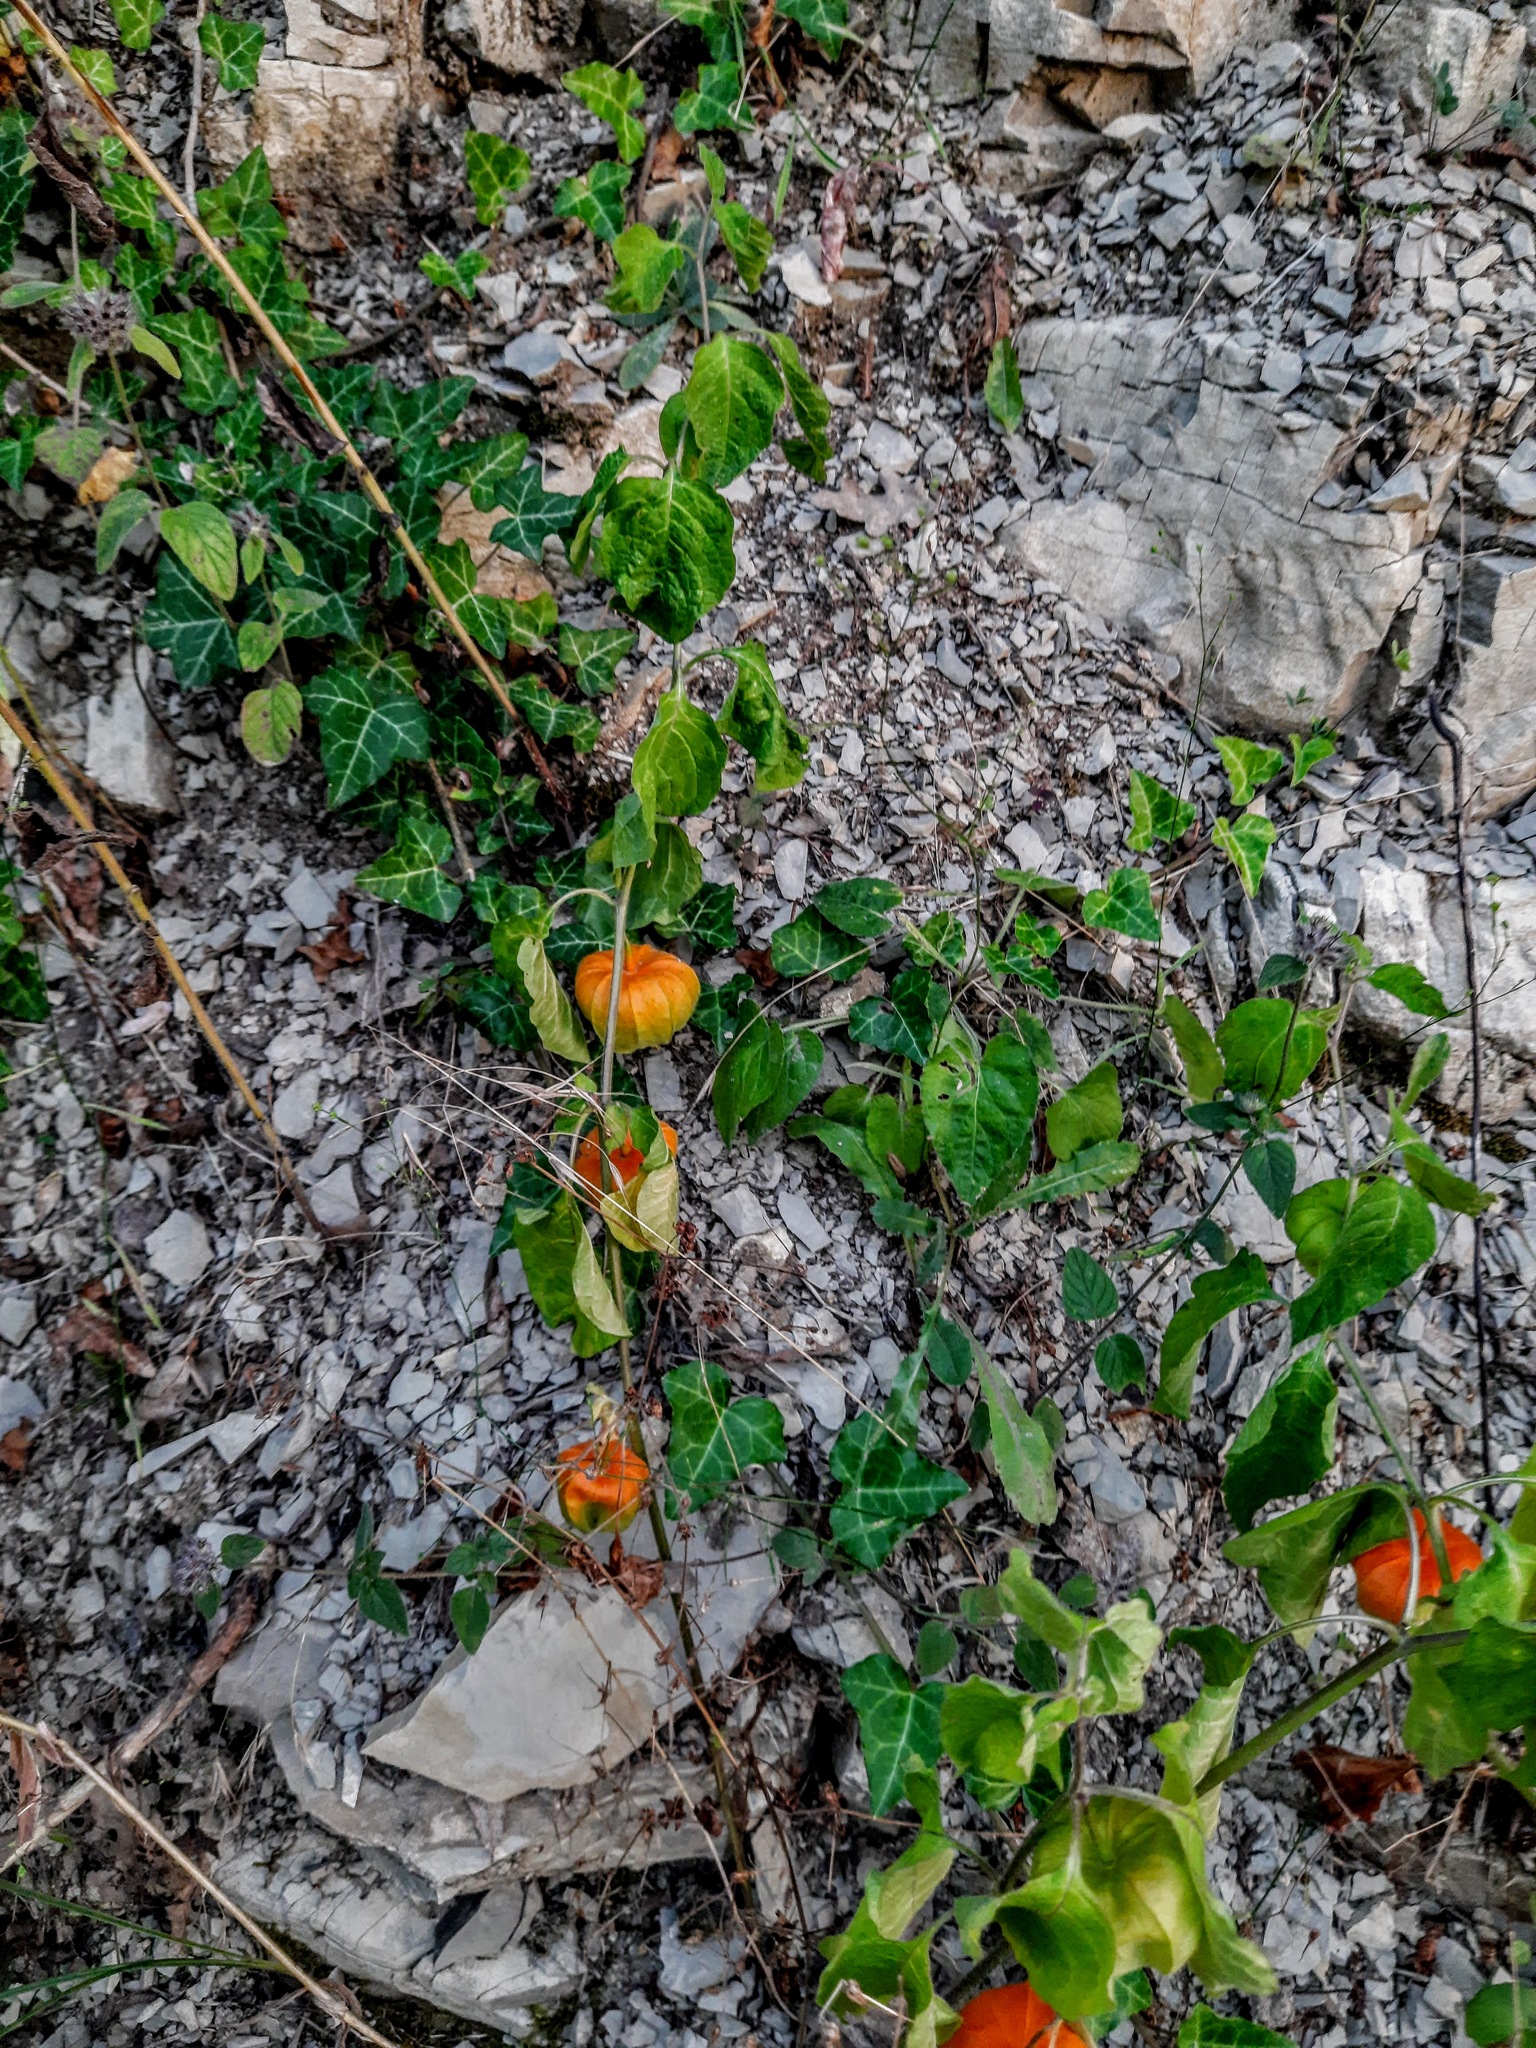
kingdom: Plantae
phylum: Tracheophyta
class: Magnoliopsida
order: Solanales
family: Solanaceae
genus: Alkekengi
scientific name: Alkekengi officinarum
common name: Japanese-lantern
